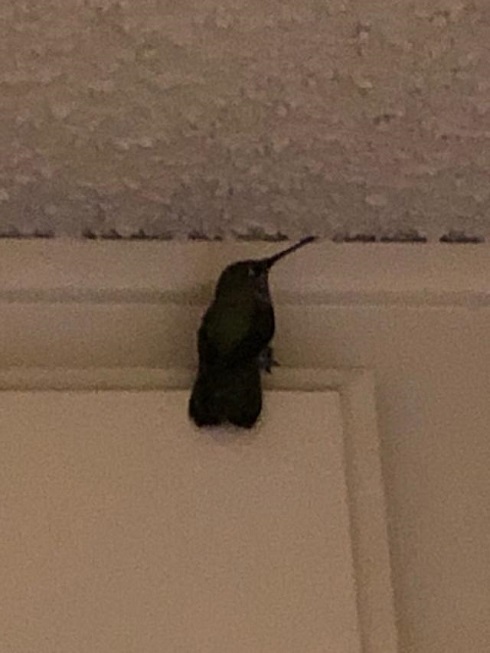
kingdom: Animalia
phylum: Chordata
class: Aves
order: Apodiformes
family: Trochilidae
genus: Calypte
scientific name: Calypte anna
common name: Anna's hummingbird
